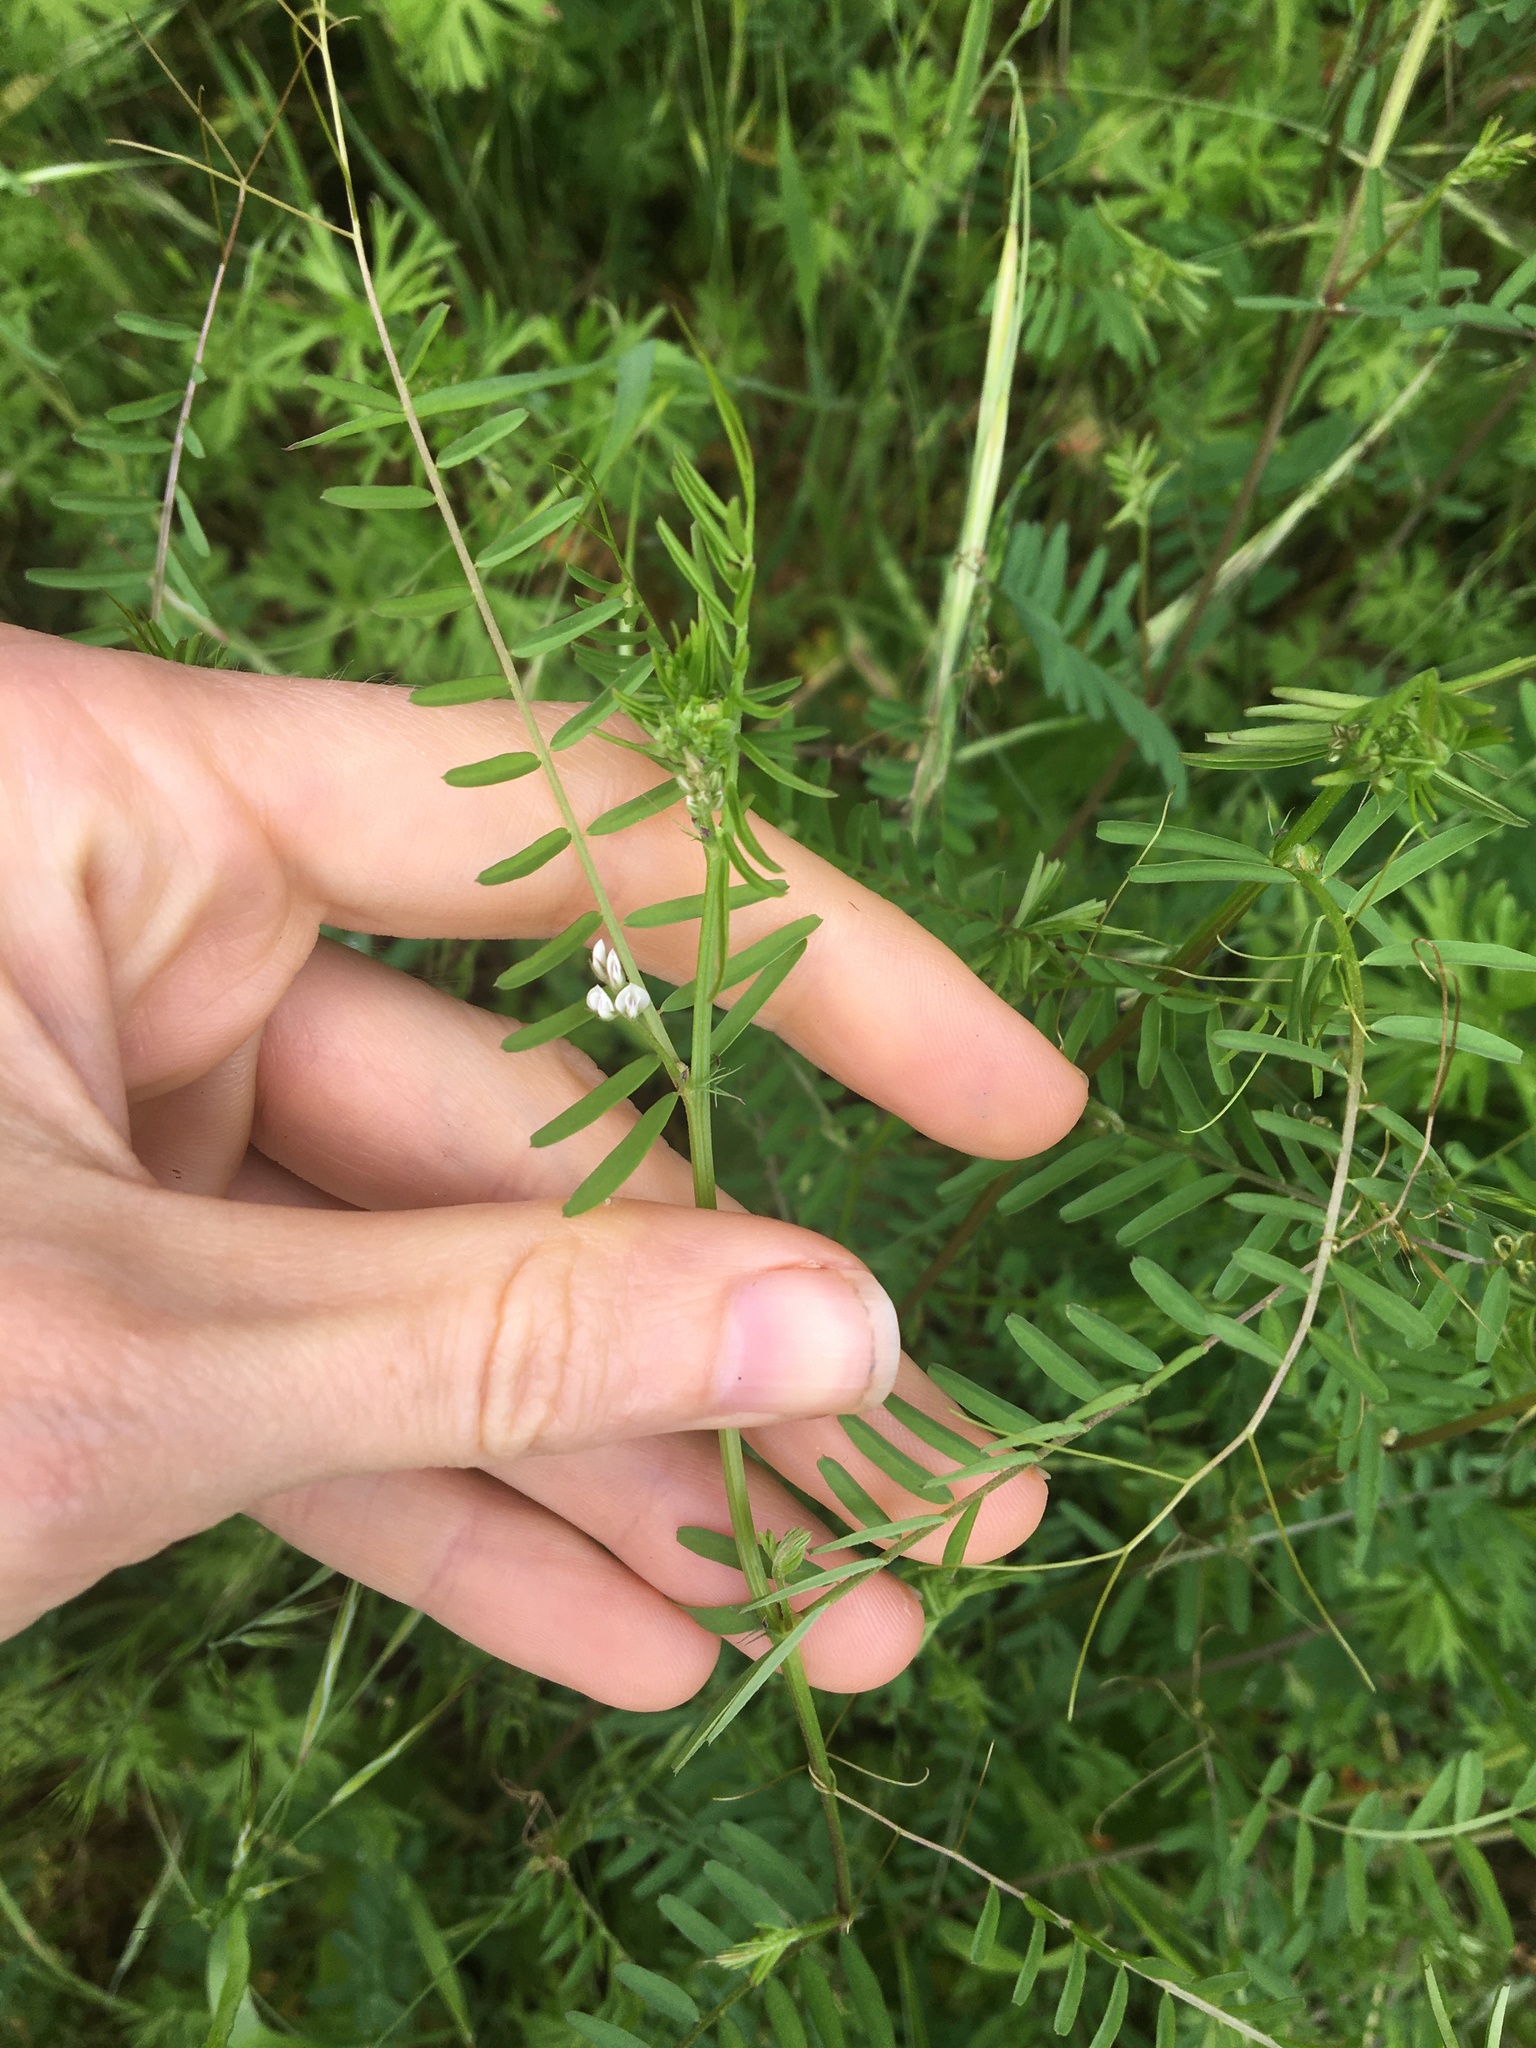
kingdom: Plantae
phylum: Tracheophyta
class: Magnoliopsida
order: Fabales
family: Fabaceae
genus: Vicia
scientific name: Vicia hirsuta
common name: Tiny vetch
